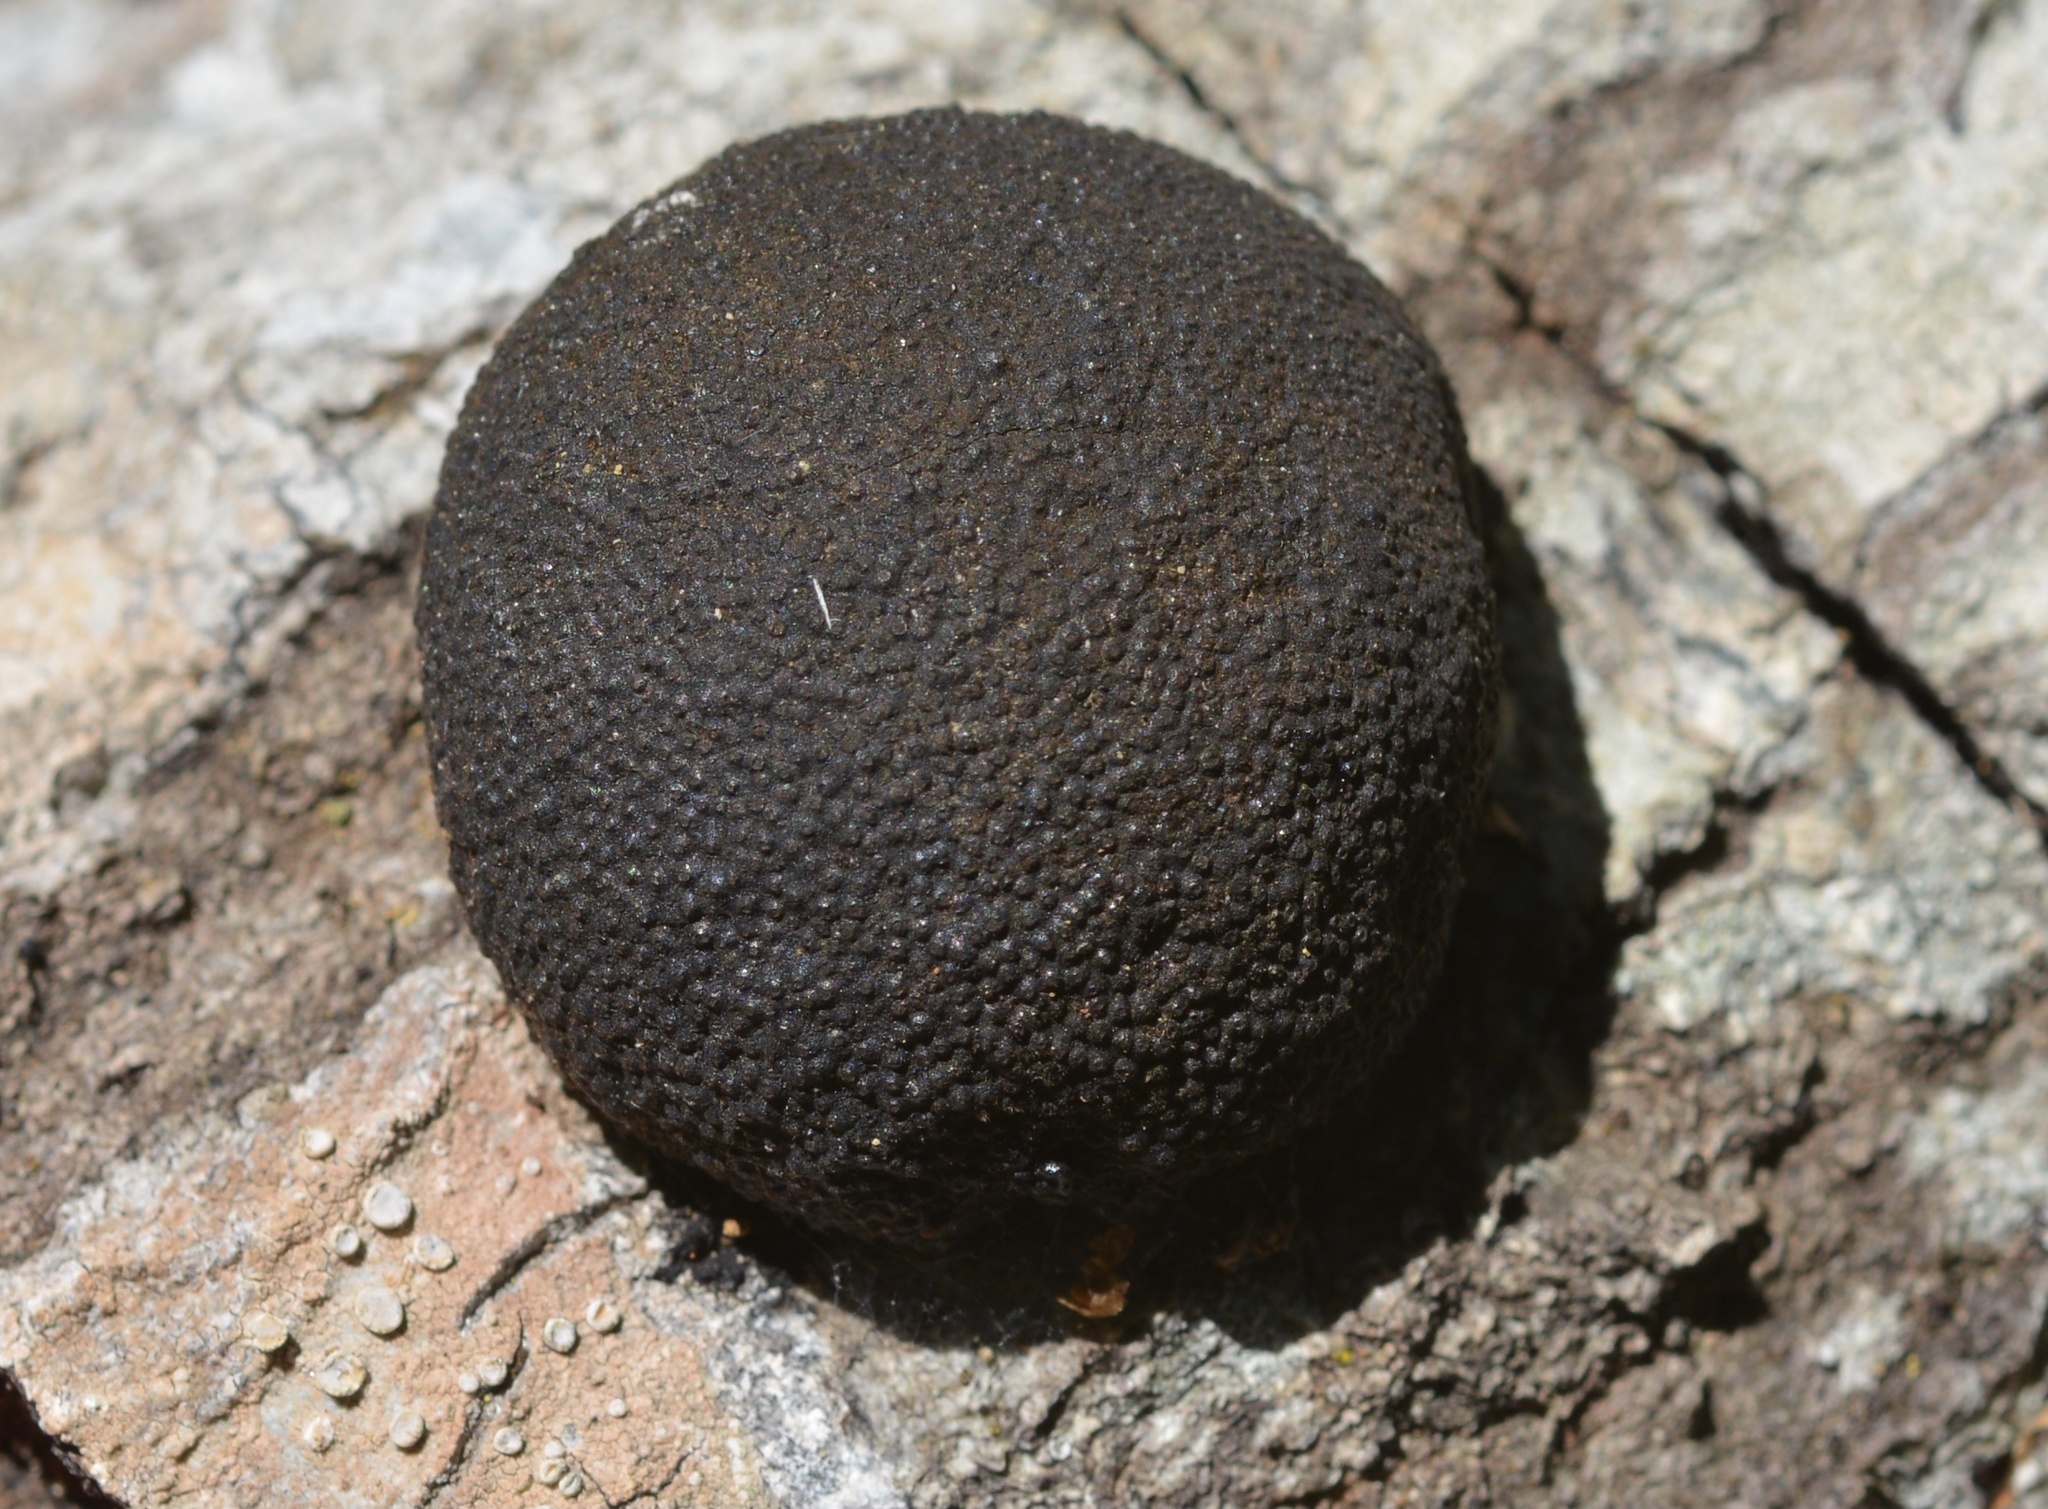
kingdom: Fungi
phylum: Ascomycota
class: Sordariomycetes
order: Xylariales
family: Hypoxylaceae
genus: Annulohypoxylon
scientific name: Annulohypoxylon thouarsianum
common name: Cramp balls
